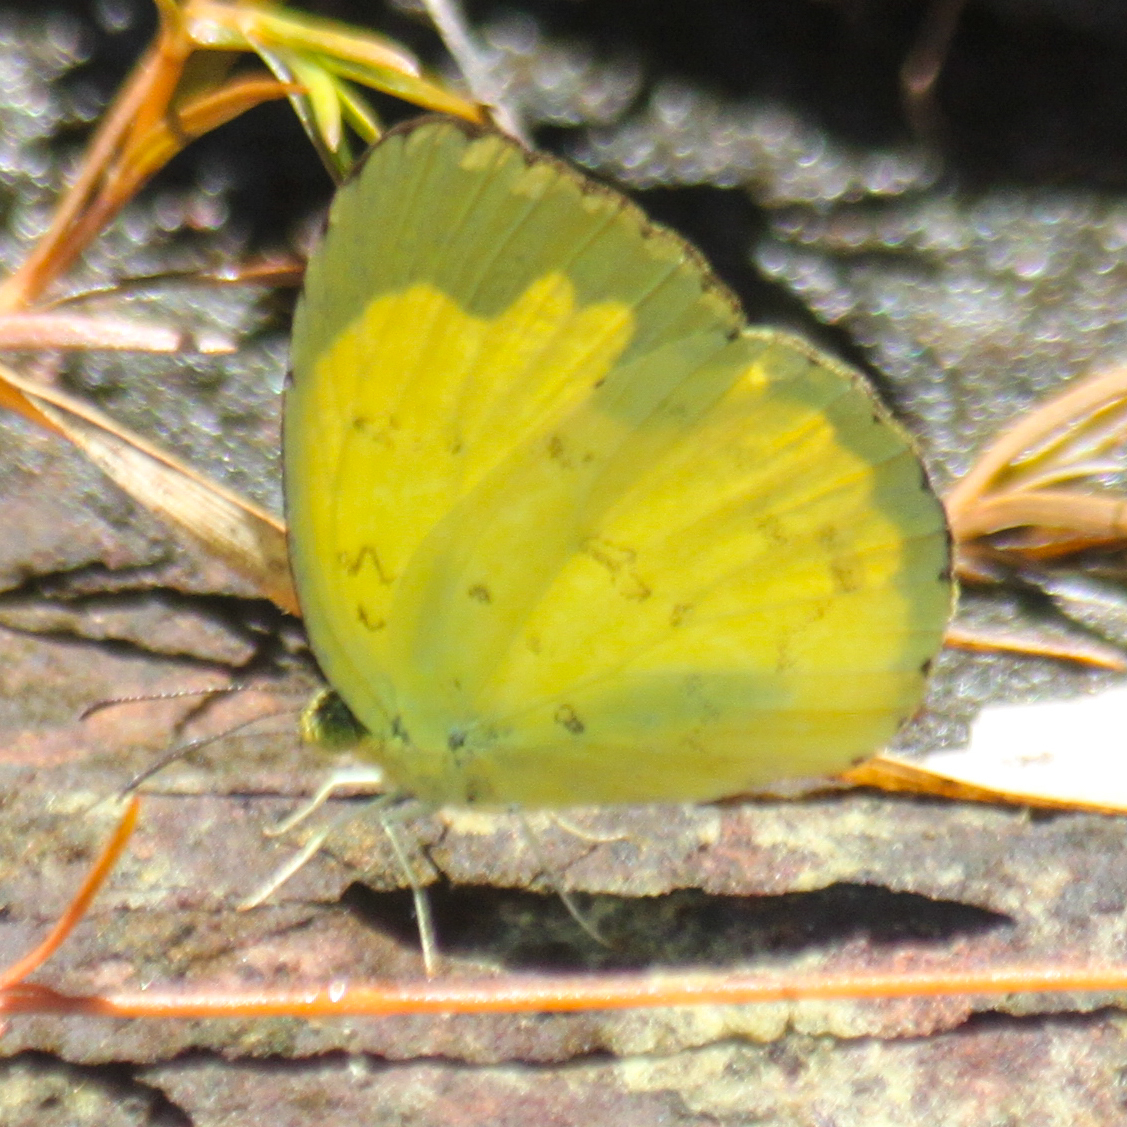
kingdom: Animalia
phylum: Arthropoda
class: Insecta
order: Lepidoptera
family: Pieridae
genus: Eurema
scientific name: Eurema hecabe
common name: Pale grass yellow
